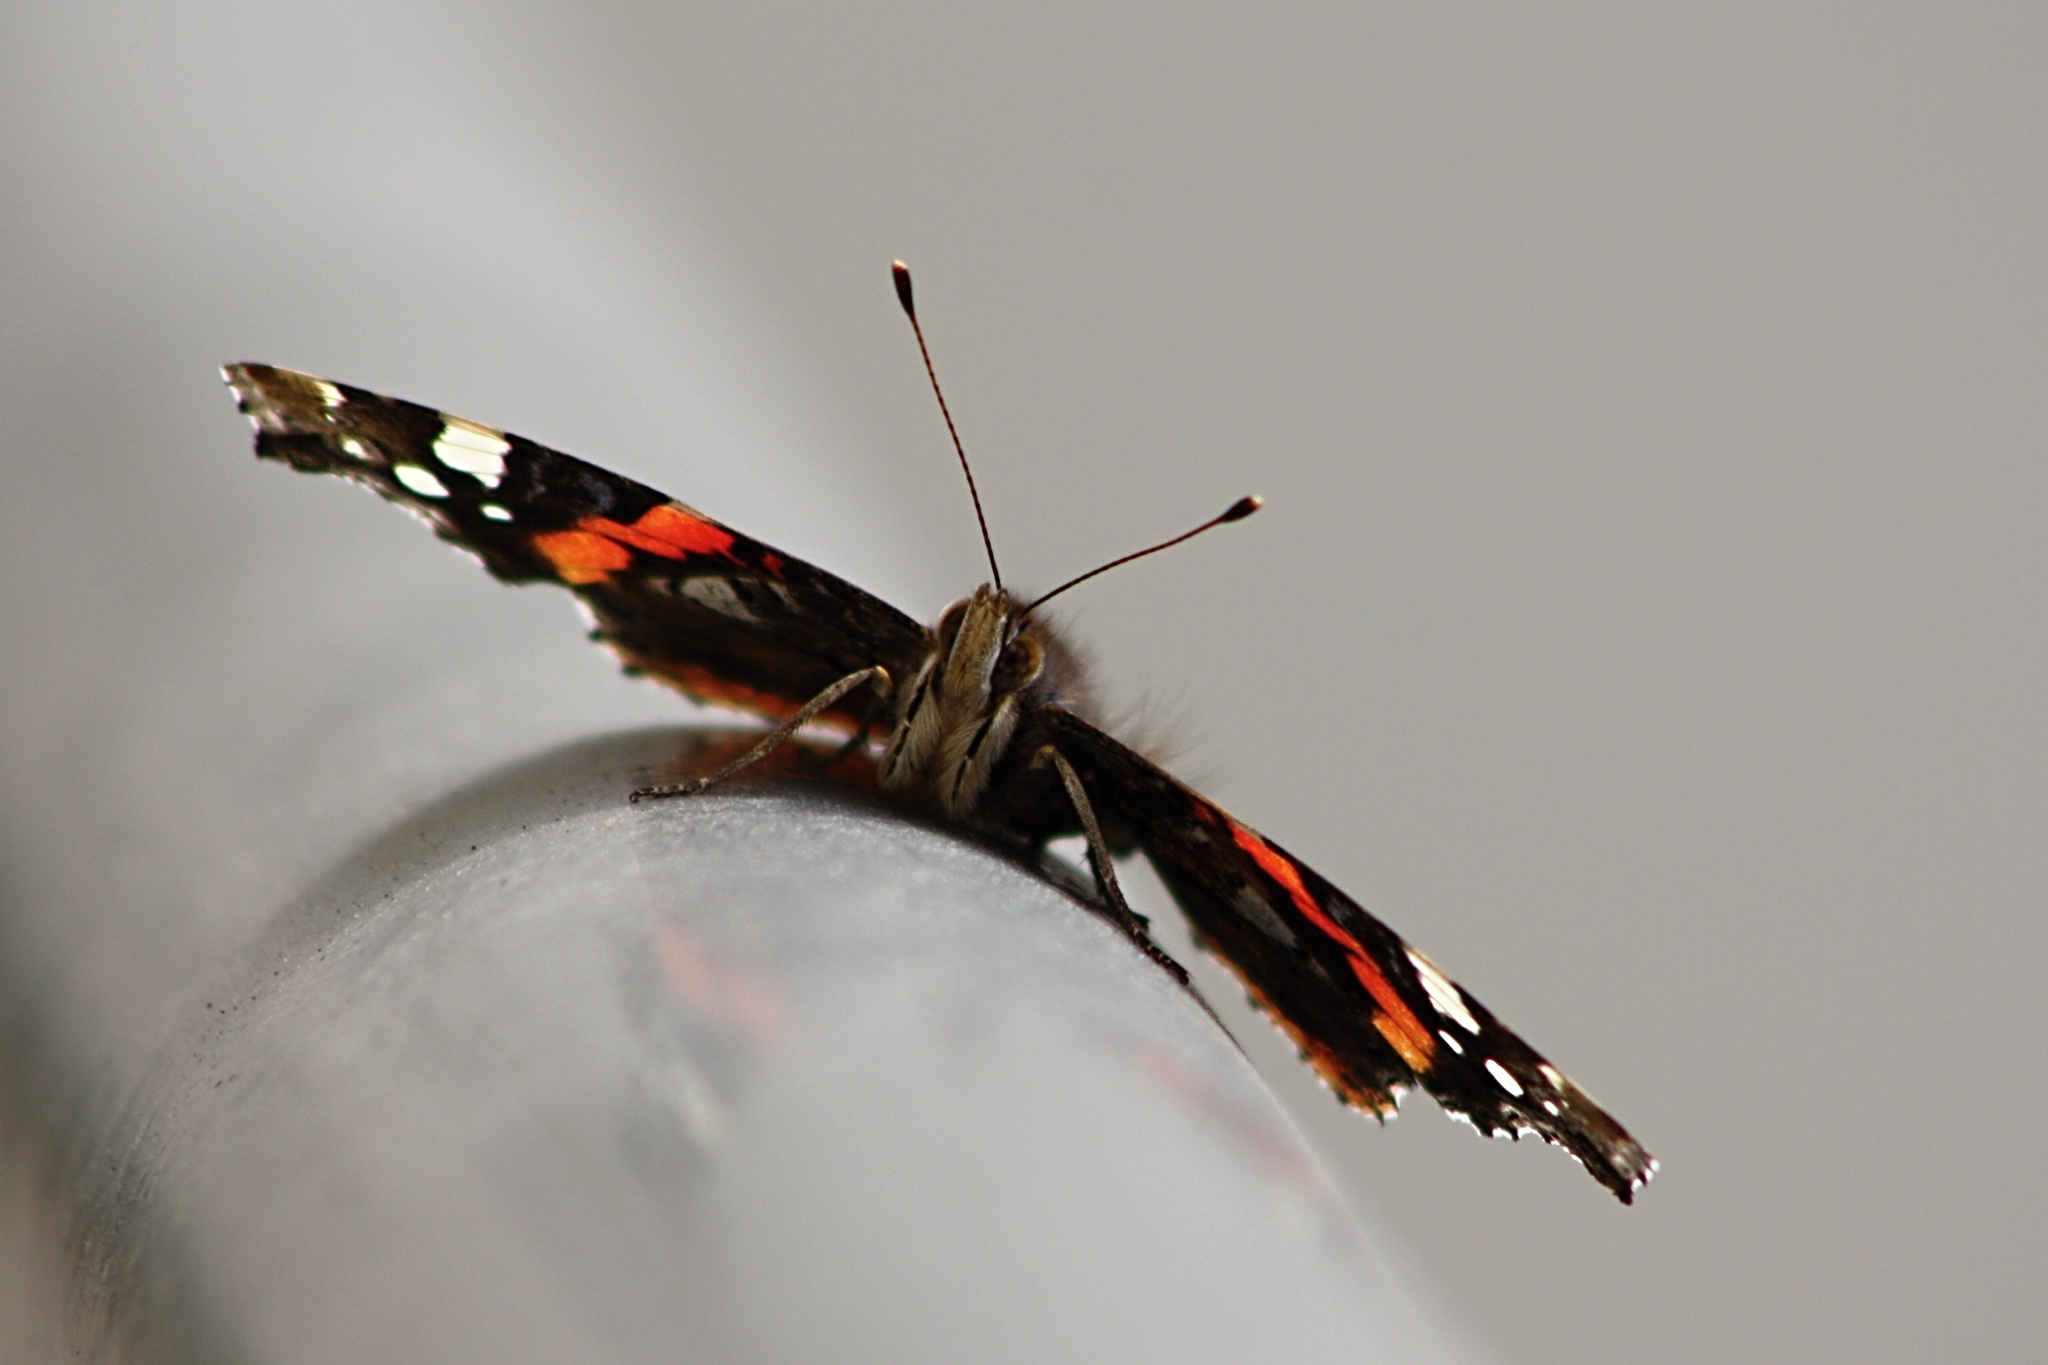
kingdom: Animalia
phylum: Arthropoda
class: Insecta
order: Lepidoptera
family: Nymphalidae
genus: Vanessa
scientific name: Vanessa atalanta
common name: Red admiral
